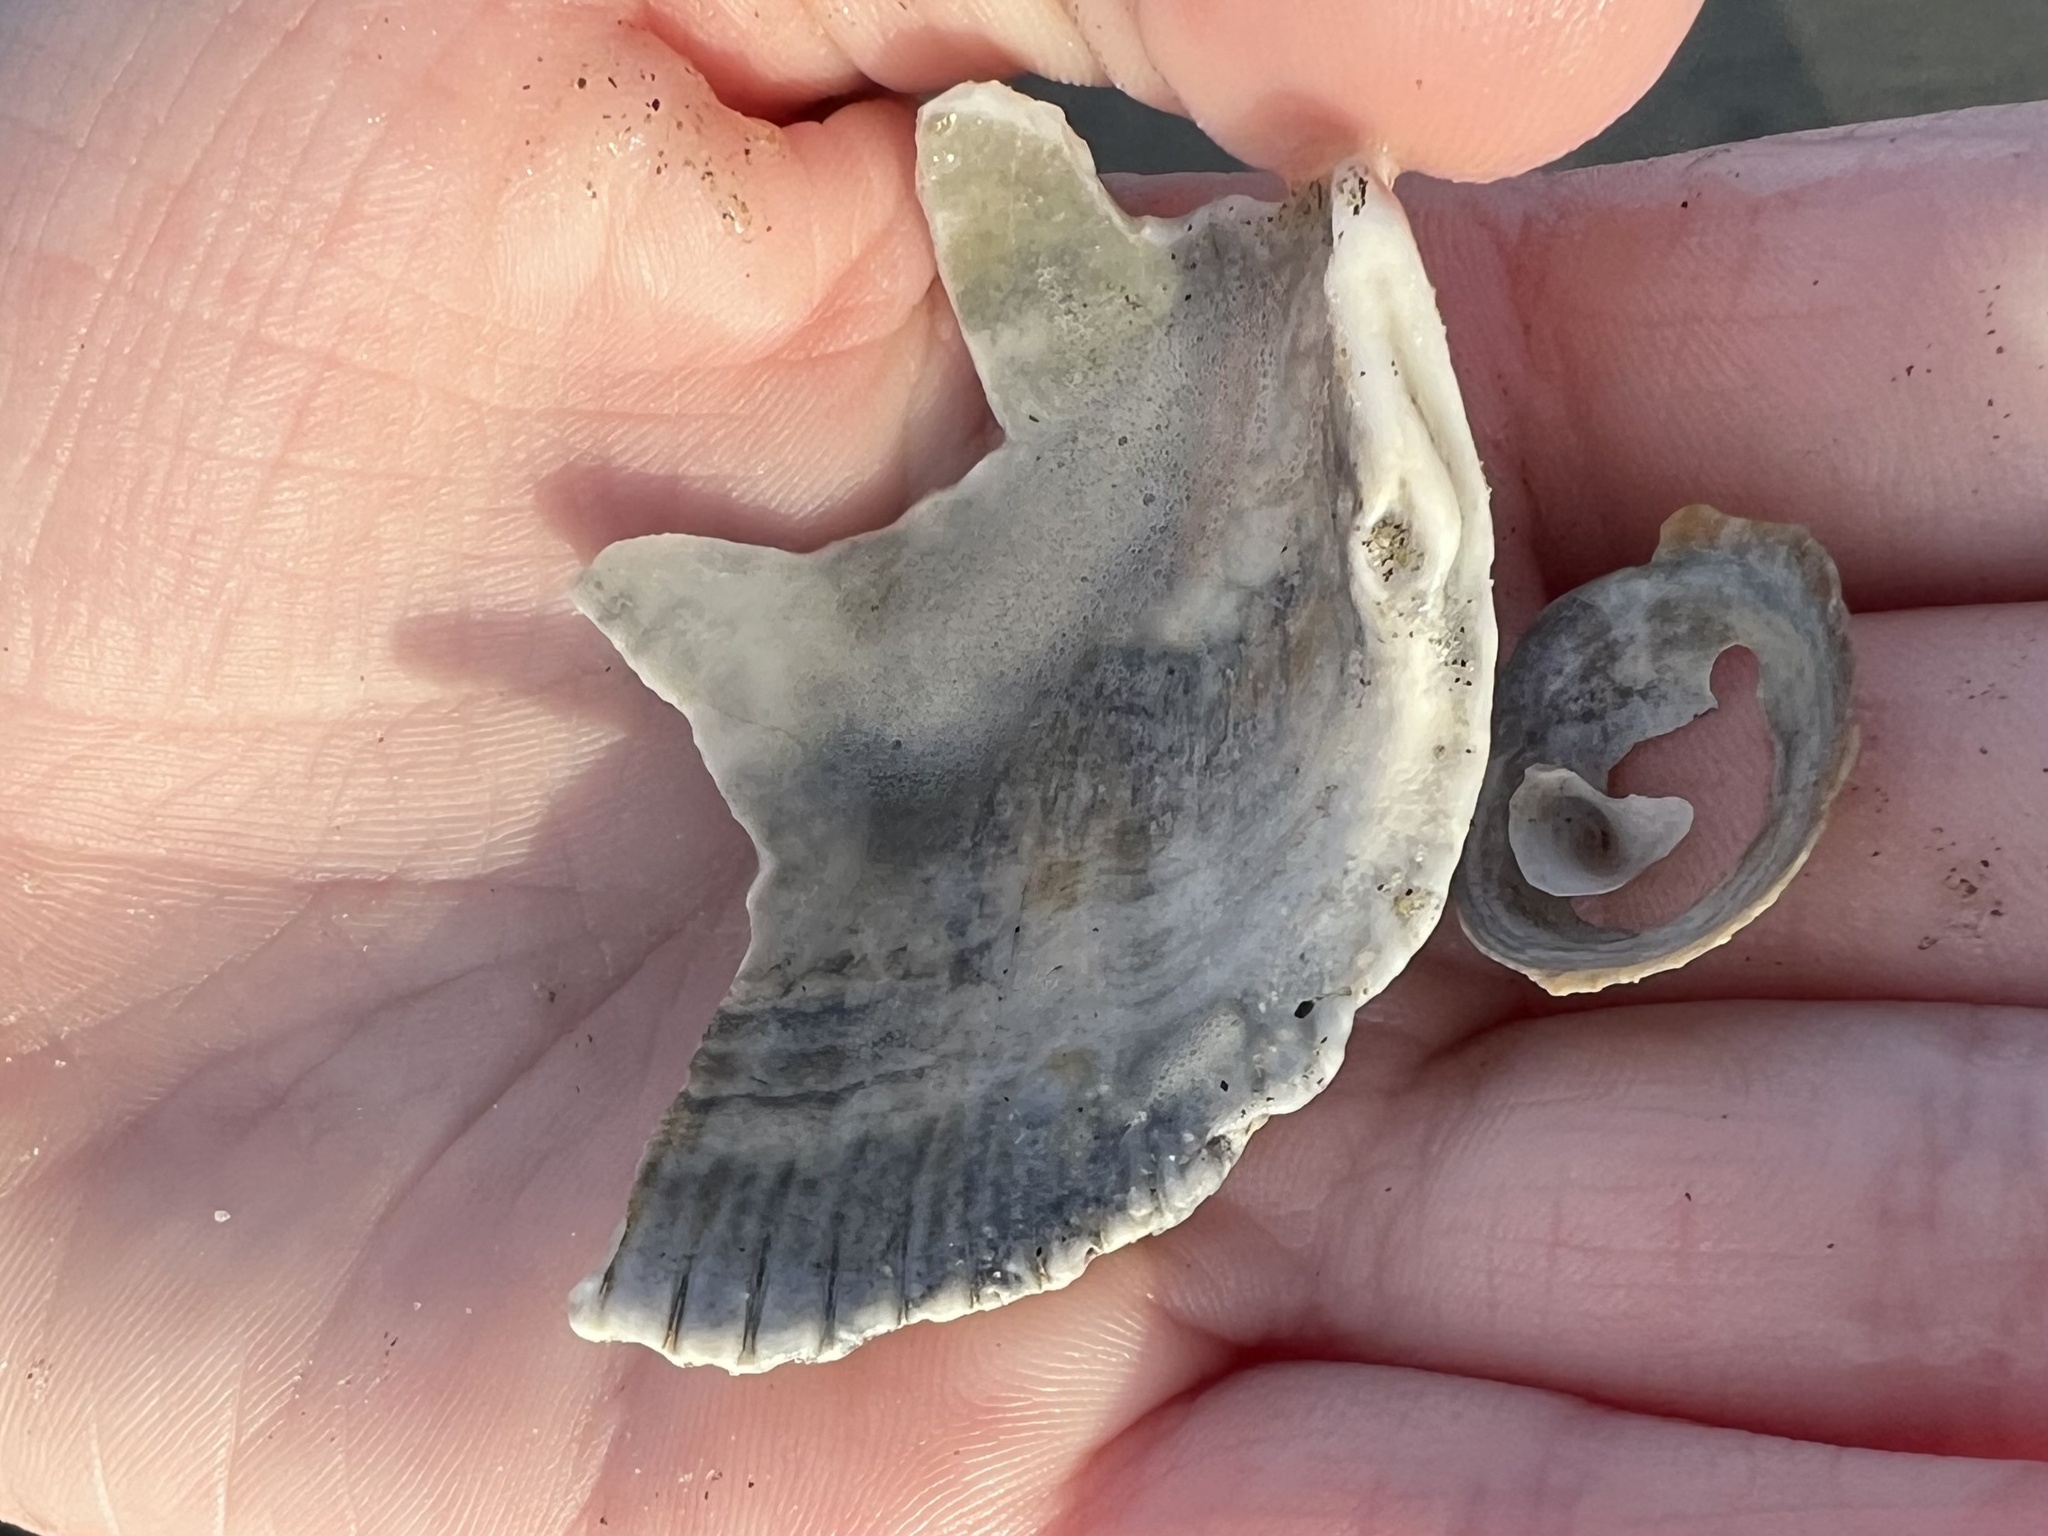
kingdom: Animalia
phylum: Mollusca
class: Bivalvia
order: Cardiida
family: Cardiidae
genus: Dallocardia
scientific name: Dallocardia quadragenaria
